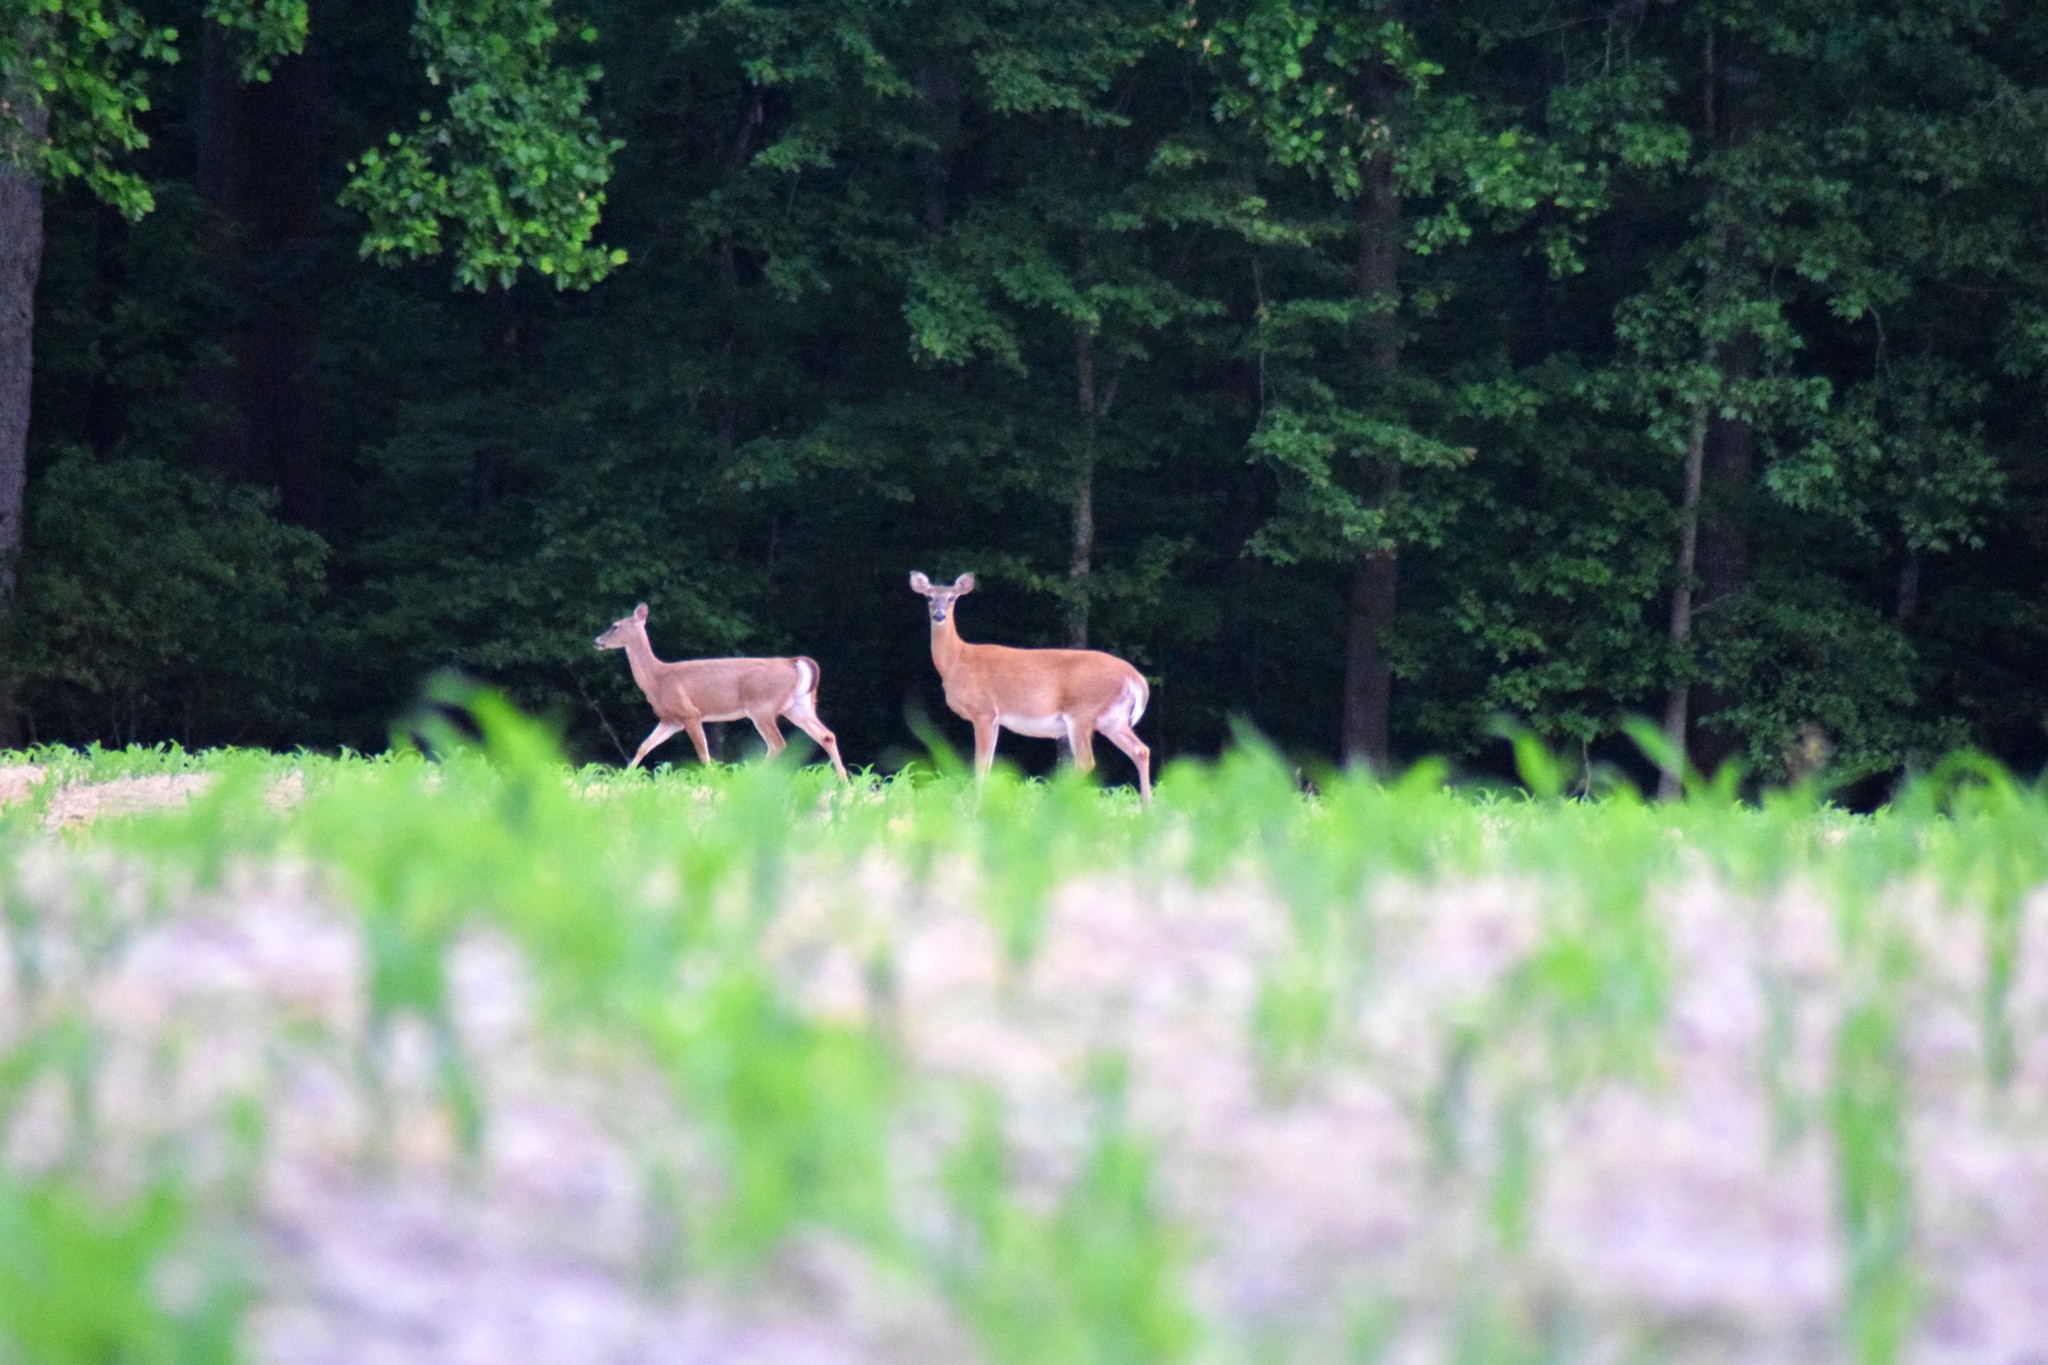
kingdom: Animalia
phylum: Chordata
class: Mammalia
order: Artiodactyla
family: Cervidae
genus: Odocoileus
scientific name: Odocoileus virginianus
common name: White-tailed deer
